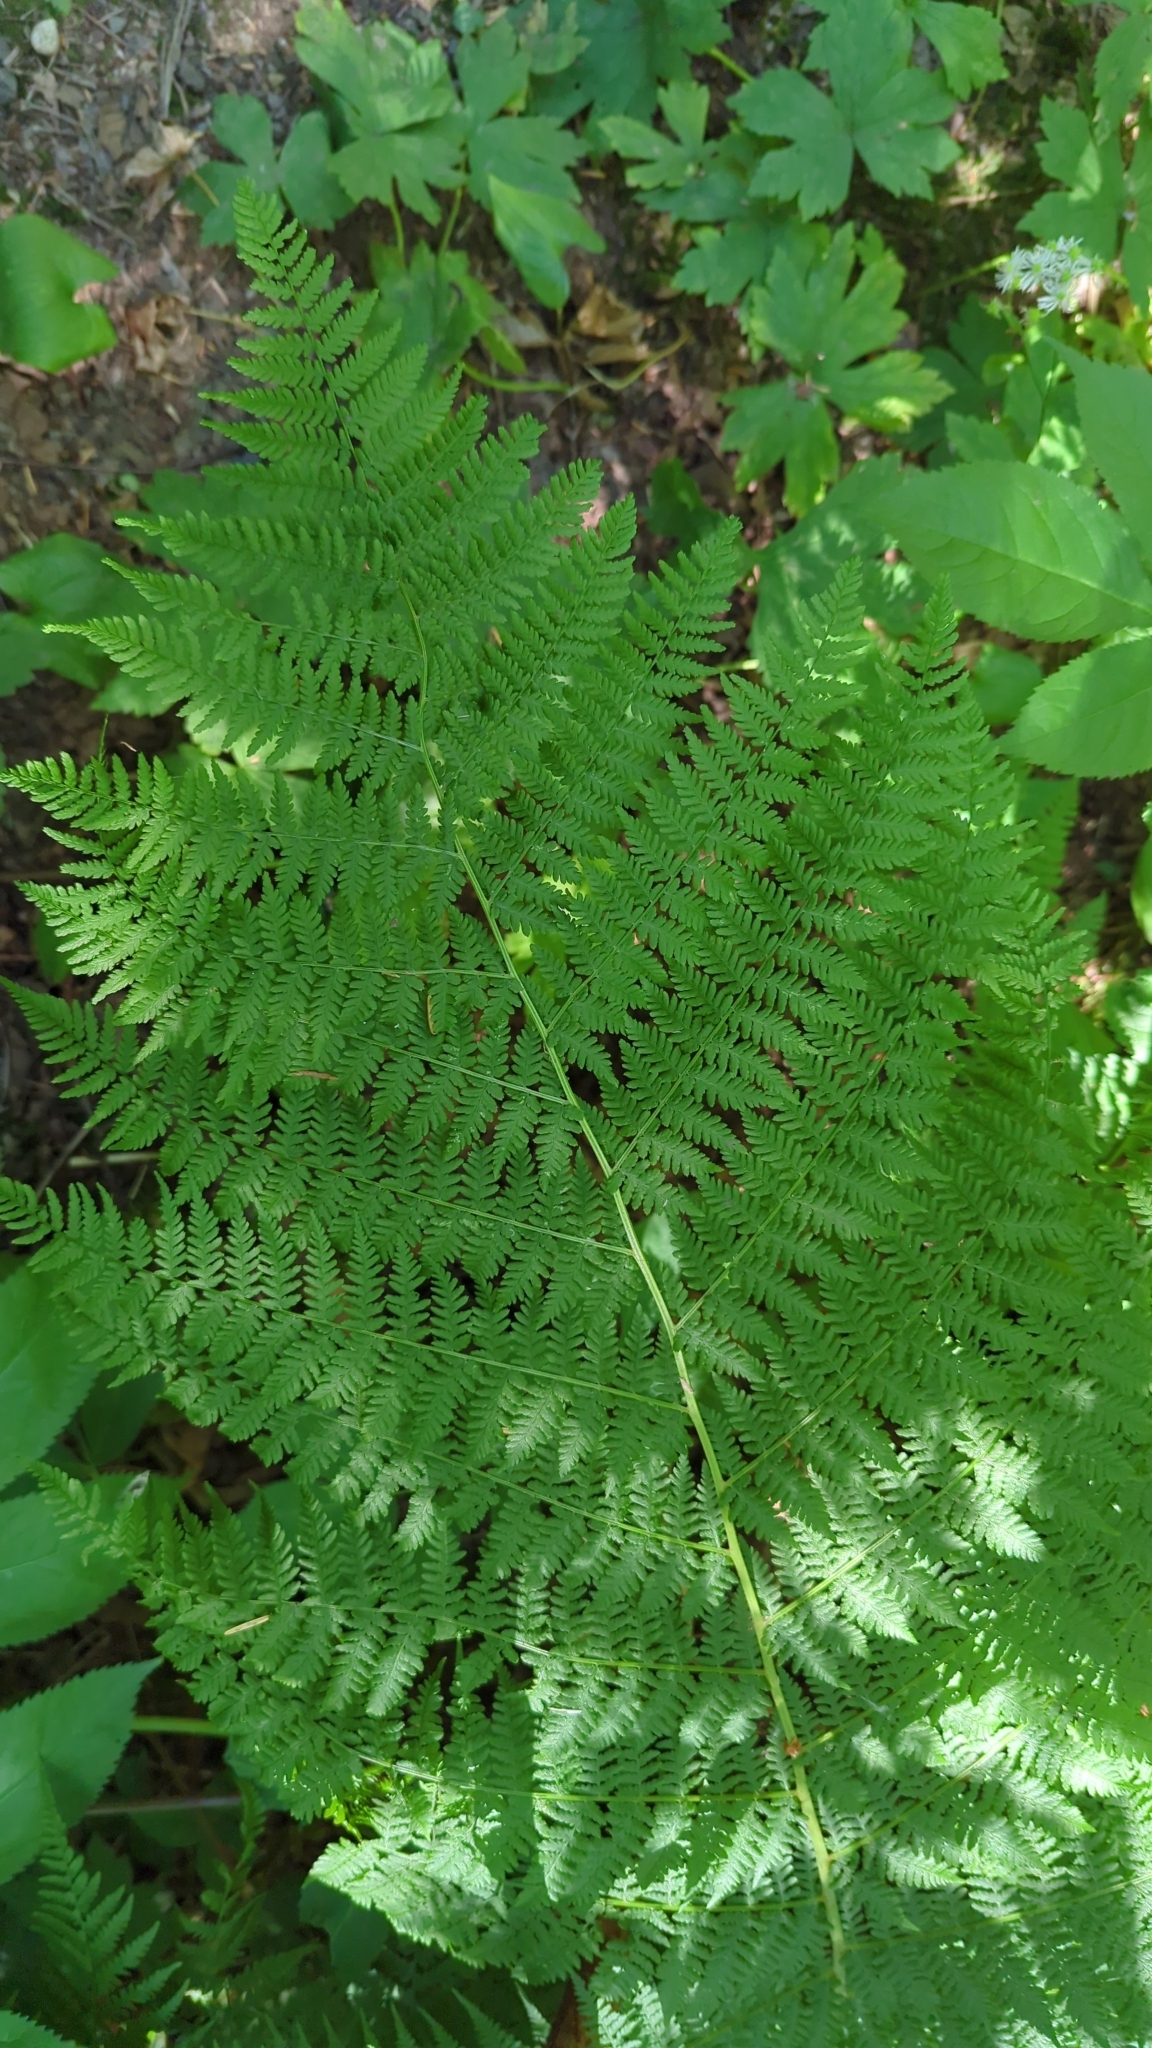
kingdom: Plantae
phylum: Tracheophyta
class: Polypodiopsida
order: Polypodiales
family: Athyriaceae
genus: Athyrium
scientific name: Athyrium filix-femina
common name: Lady fern
